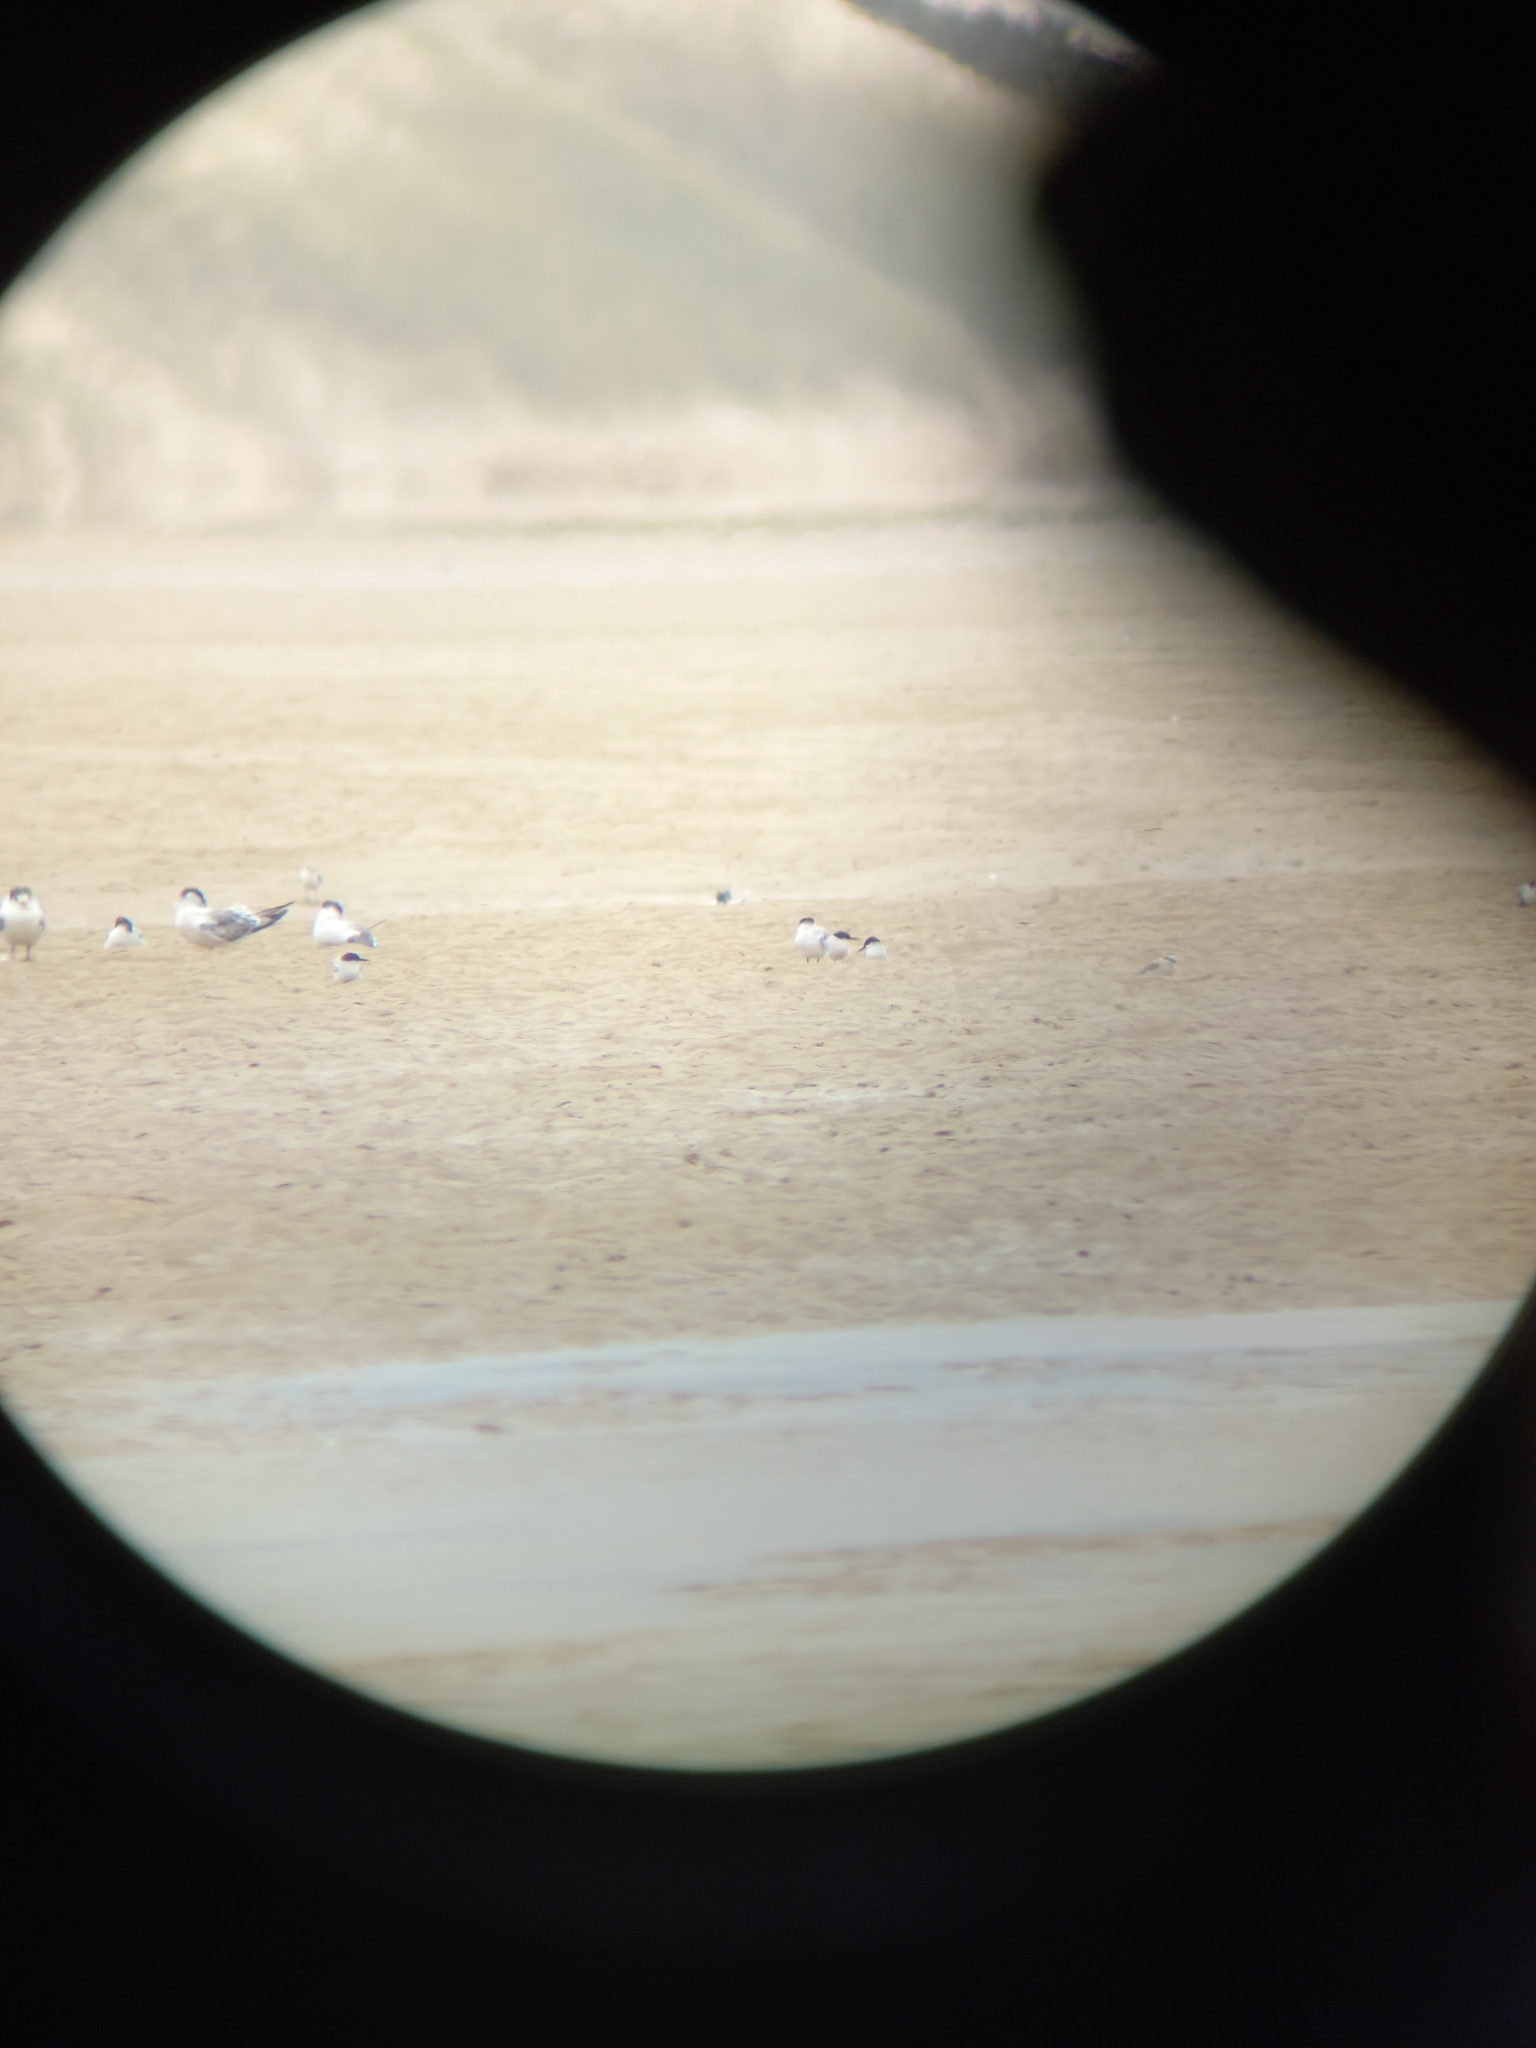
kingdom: Animalia
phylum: Chordata
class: Aves
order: Charadriiformes
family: Laridae
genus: Sternula
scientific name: Sternula balaenarum
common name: Damara tern
